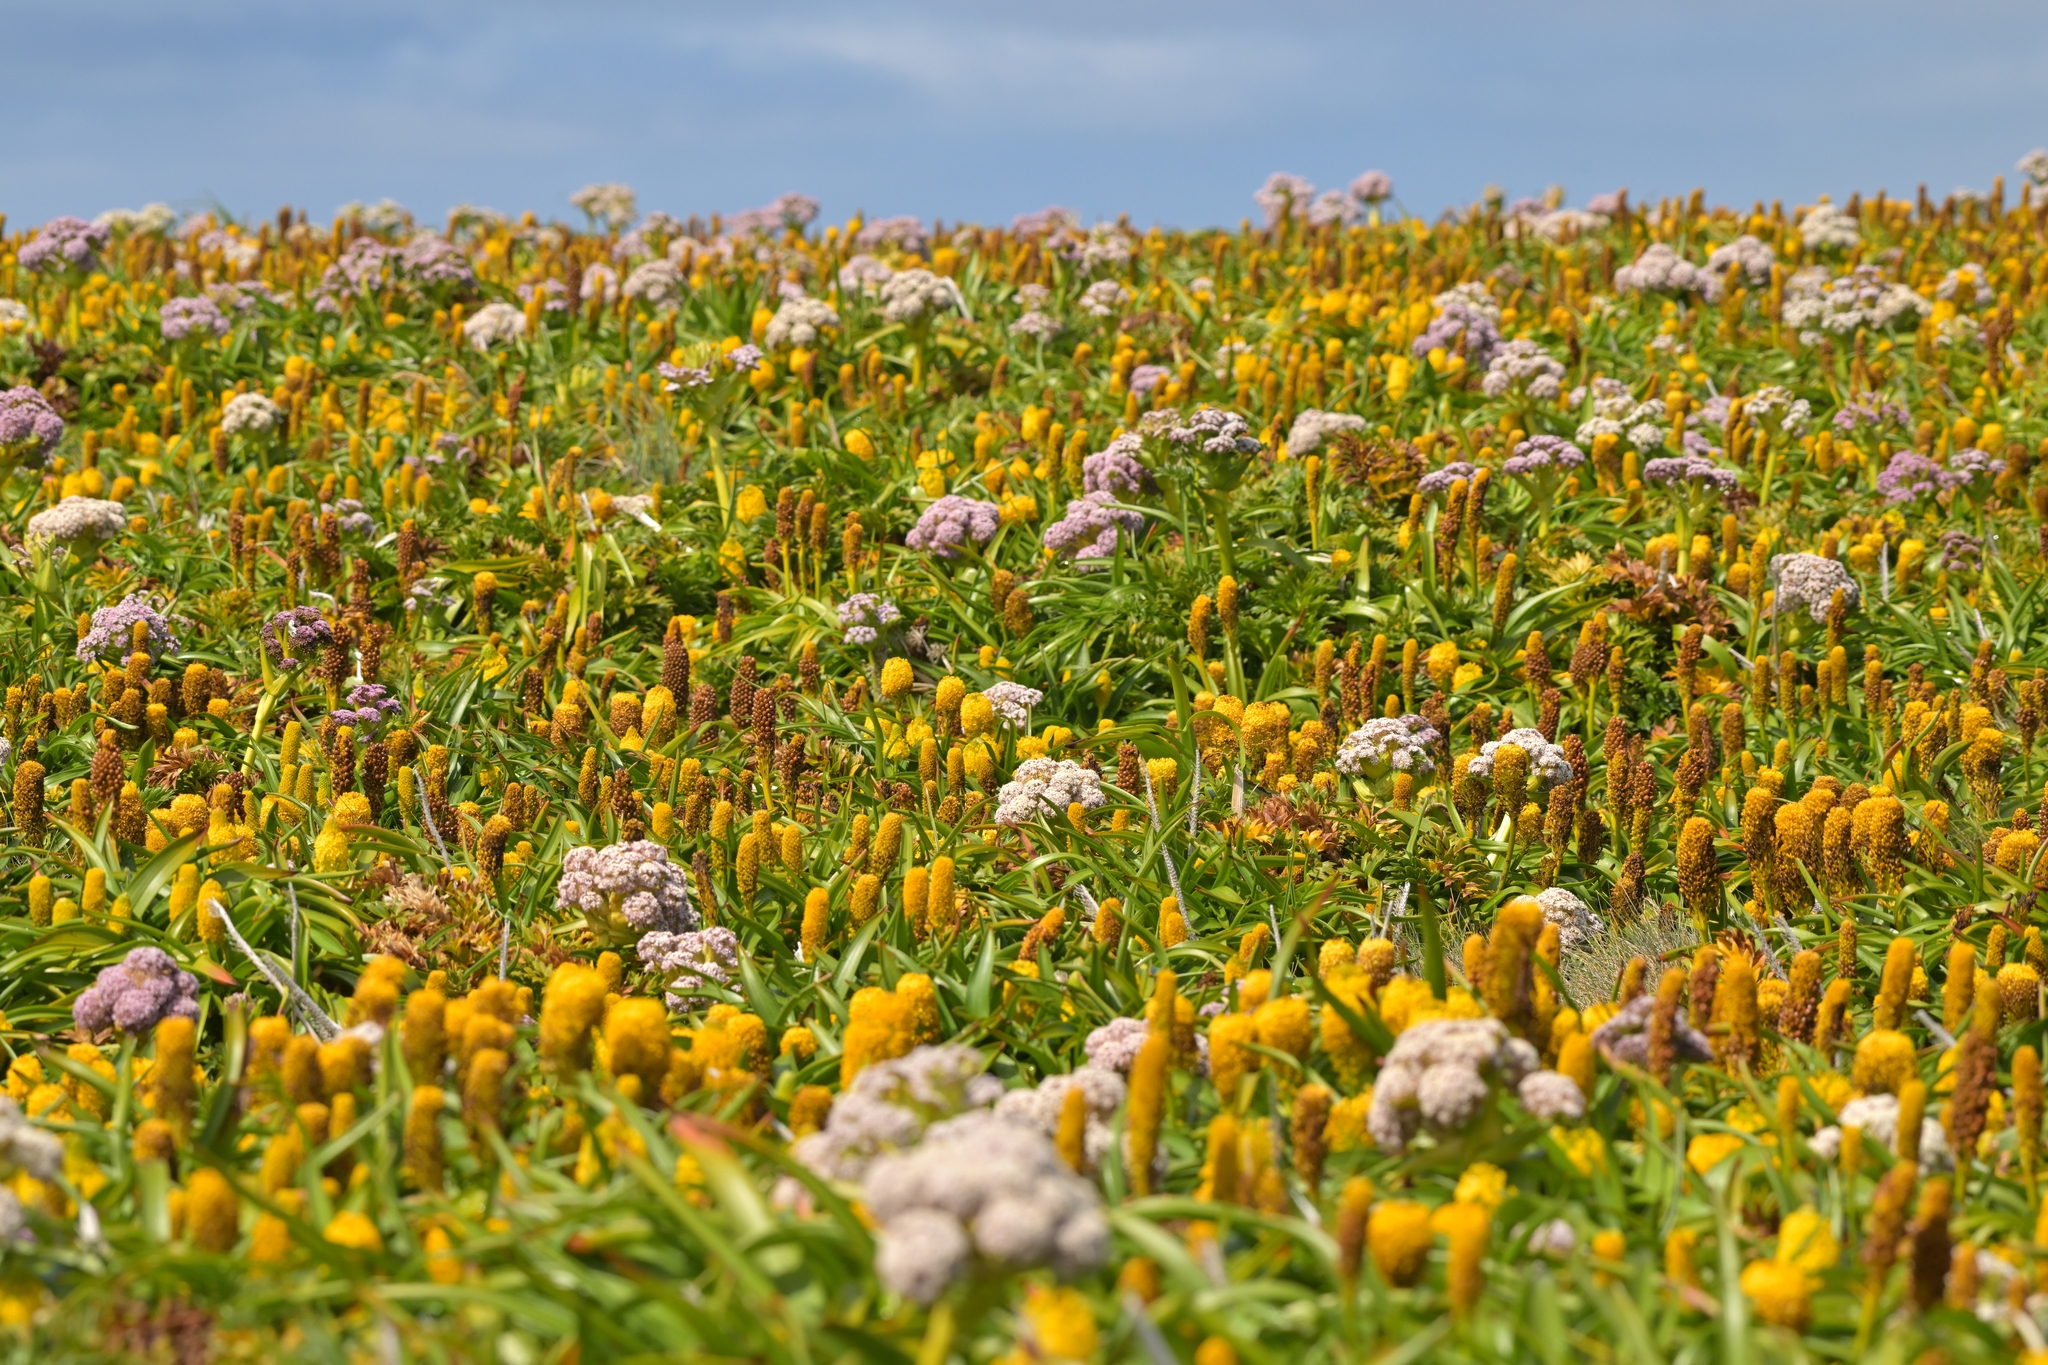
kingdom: Plantae
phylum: Tracheophyta
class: Liliopsida
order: Asparagales
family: Asphodelaceae
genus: Bulbinella
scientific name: Bulbinella rossii
